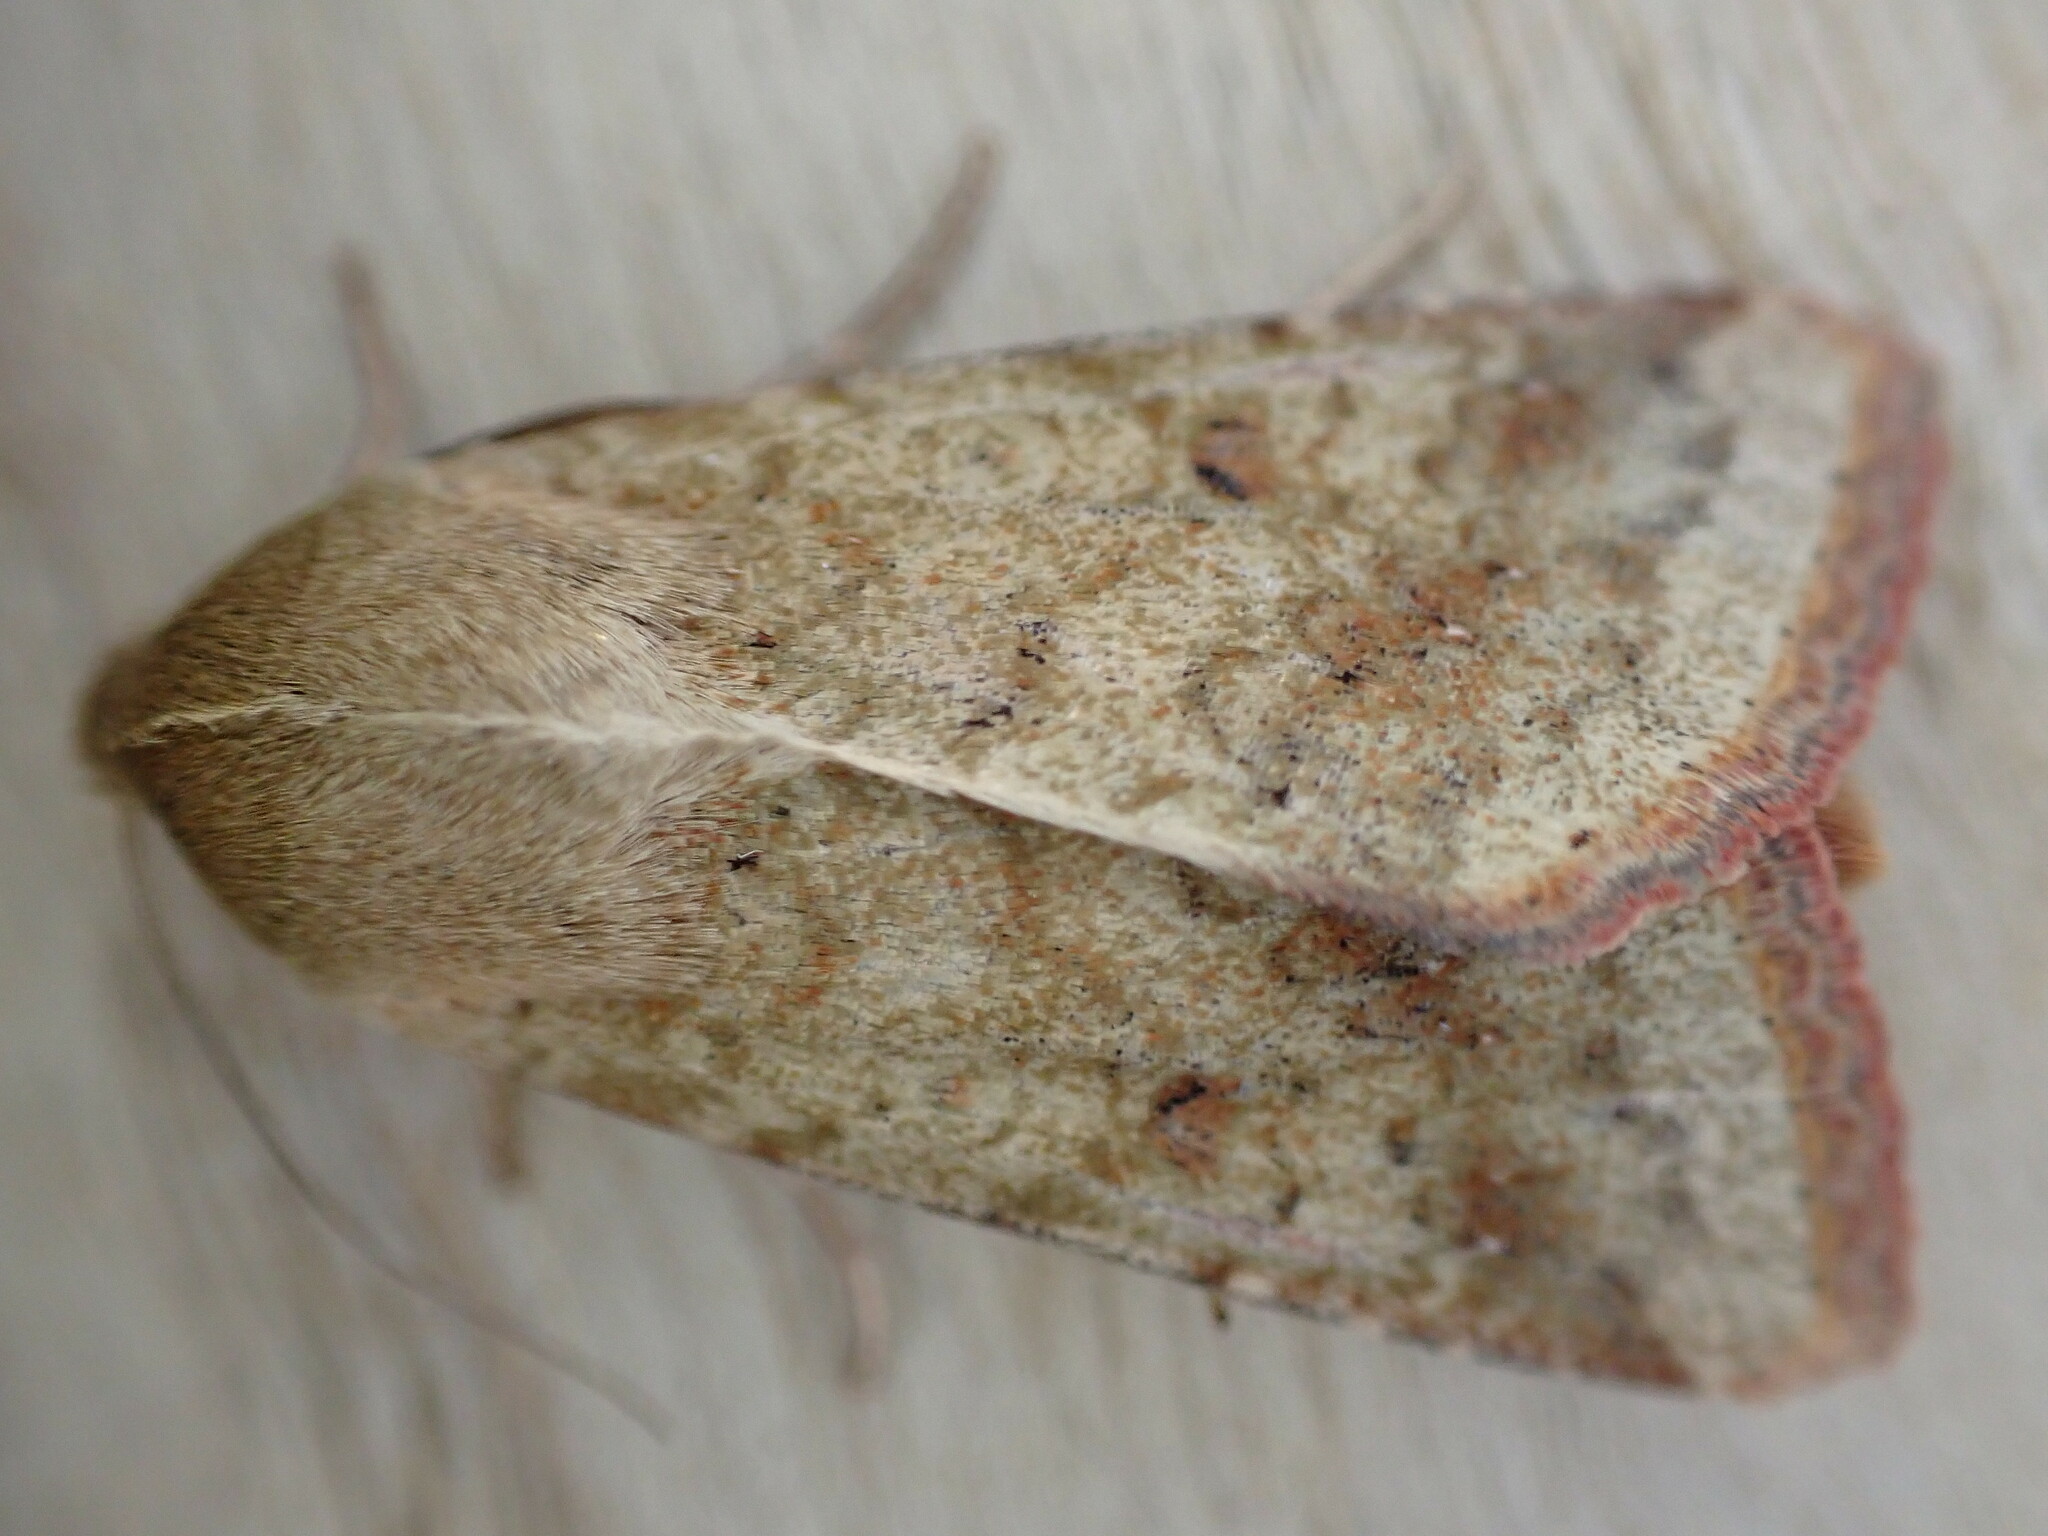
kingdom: Animalia
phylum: Arthropoda
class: Insecta
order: Lepidoptera
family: Noctuidae
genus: Helicoverpa
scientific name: Helicoverpa armigera
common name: Cotton bollworm
